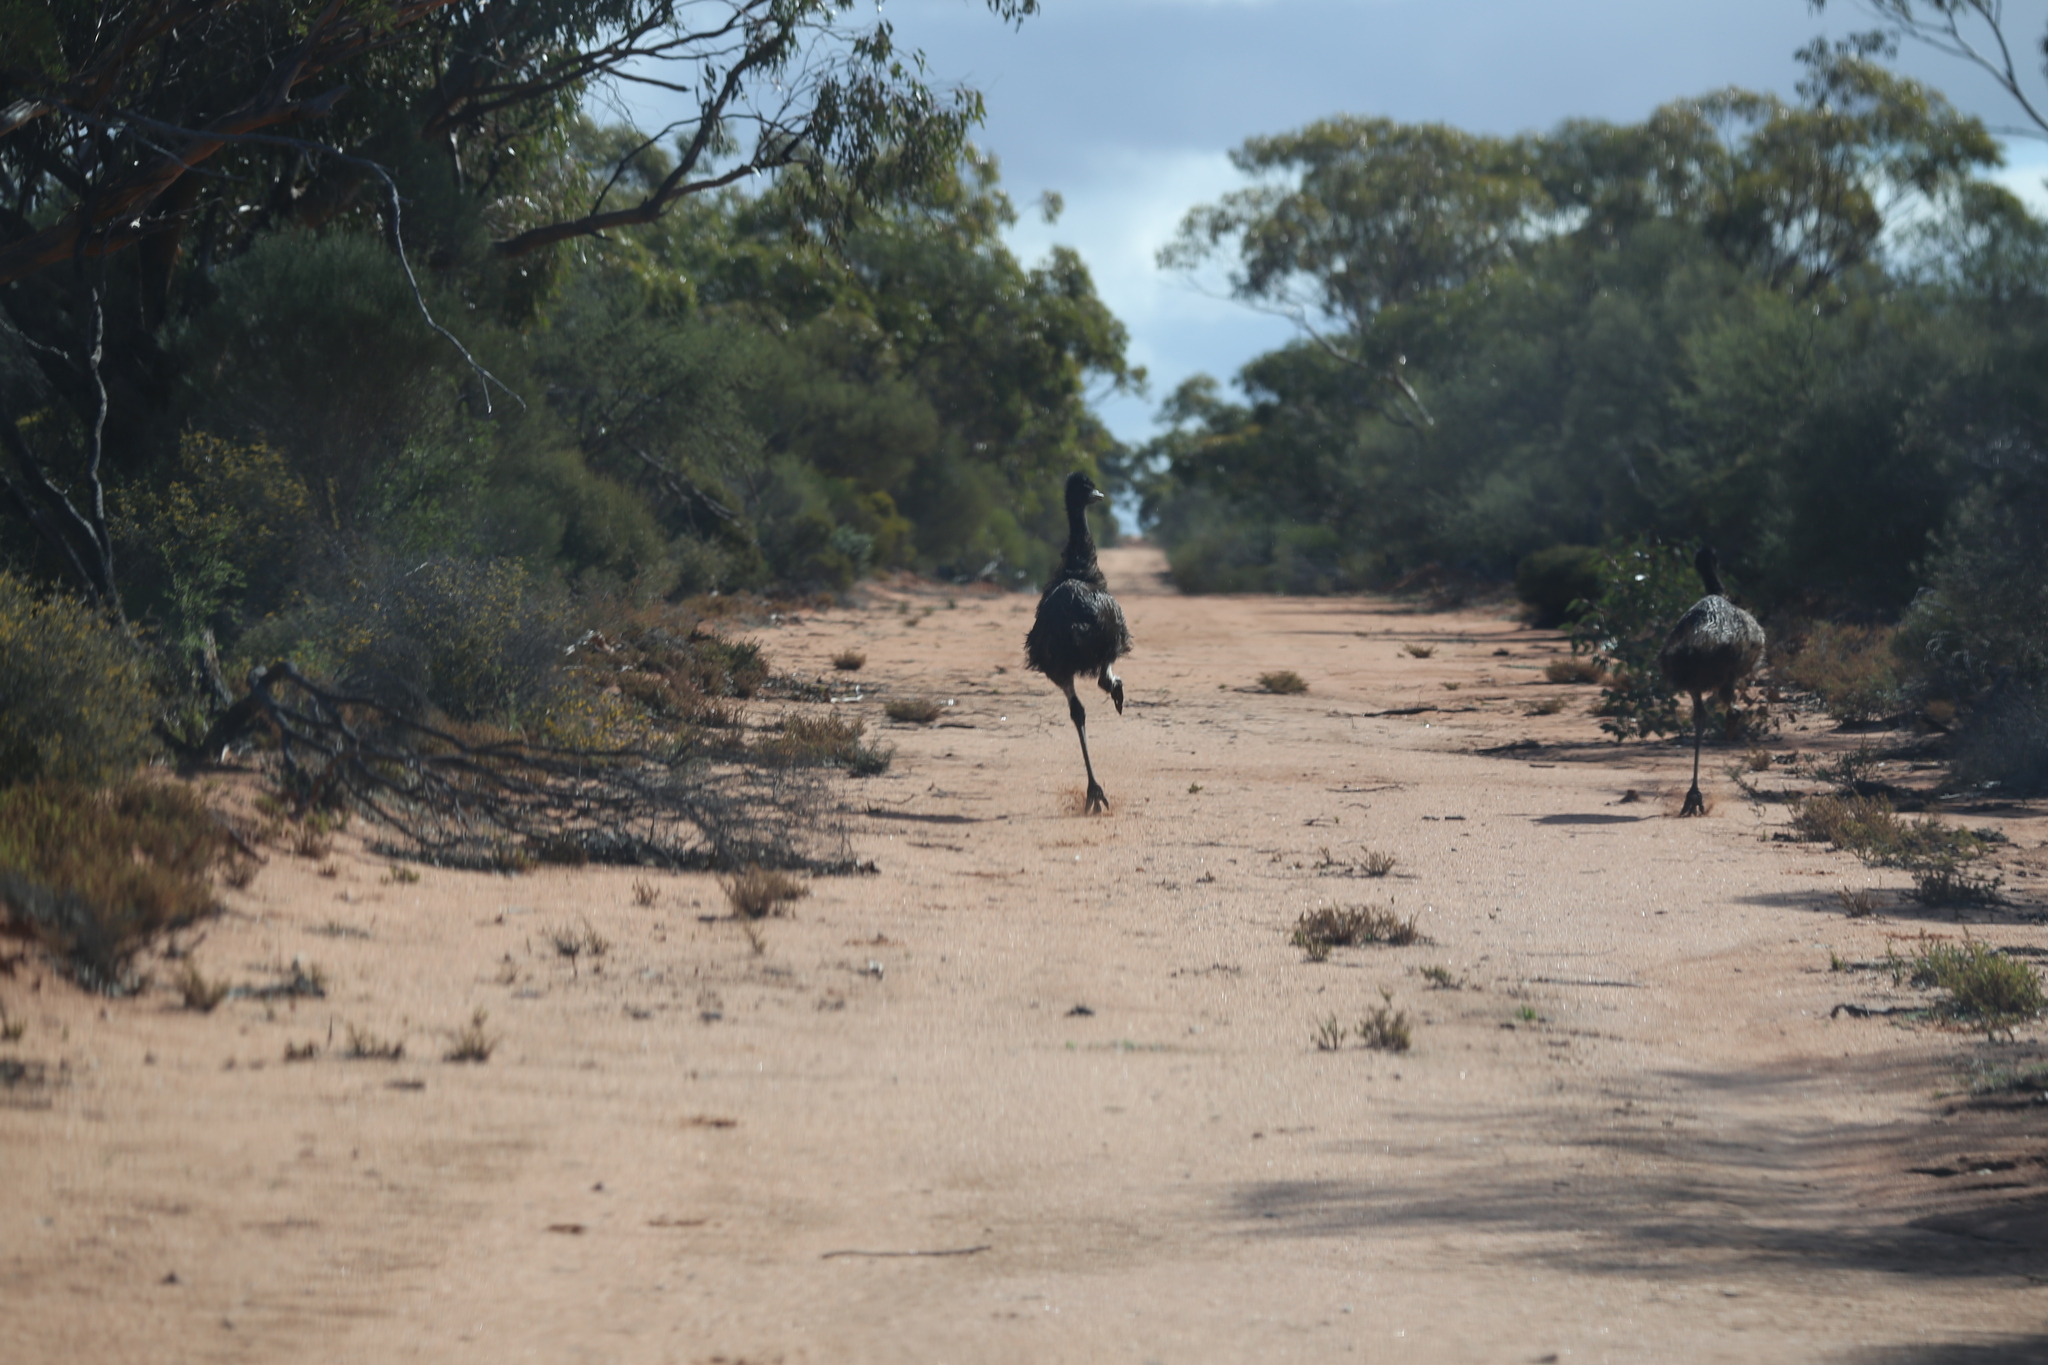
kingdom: Animalia
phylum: Chordata
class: Aves
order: Casuariiformes
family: Dromaiidae
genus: Dromaius
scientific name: Dromaius novaehollandiae
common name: Emu
